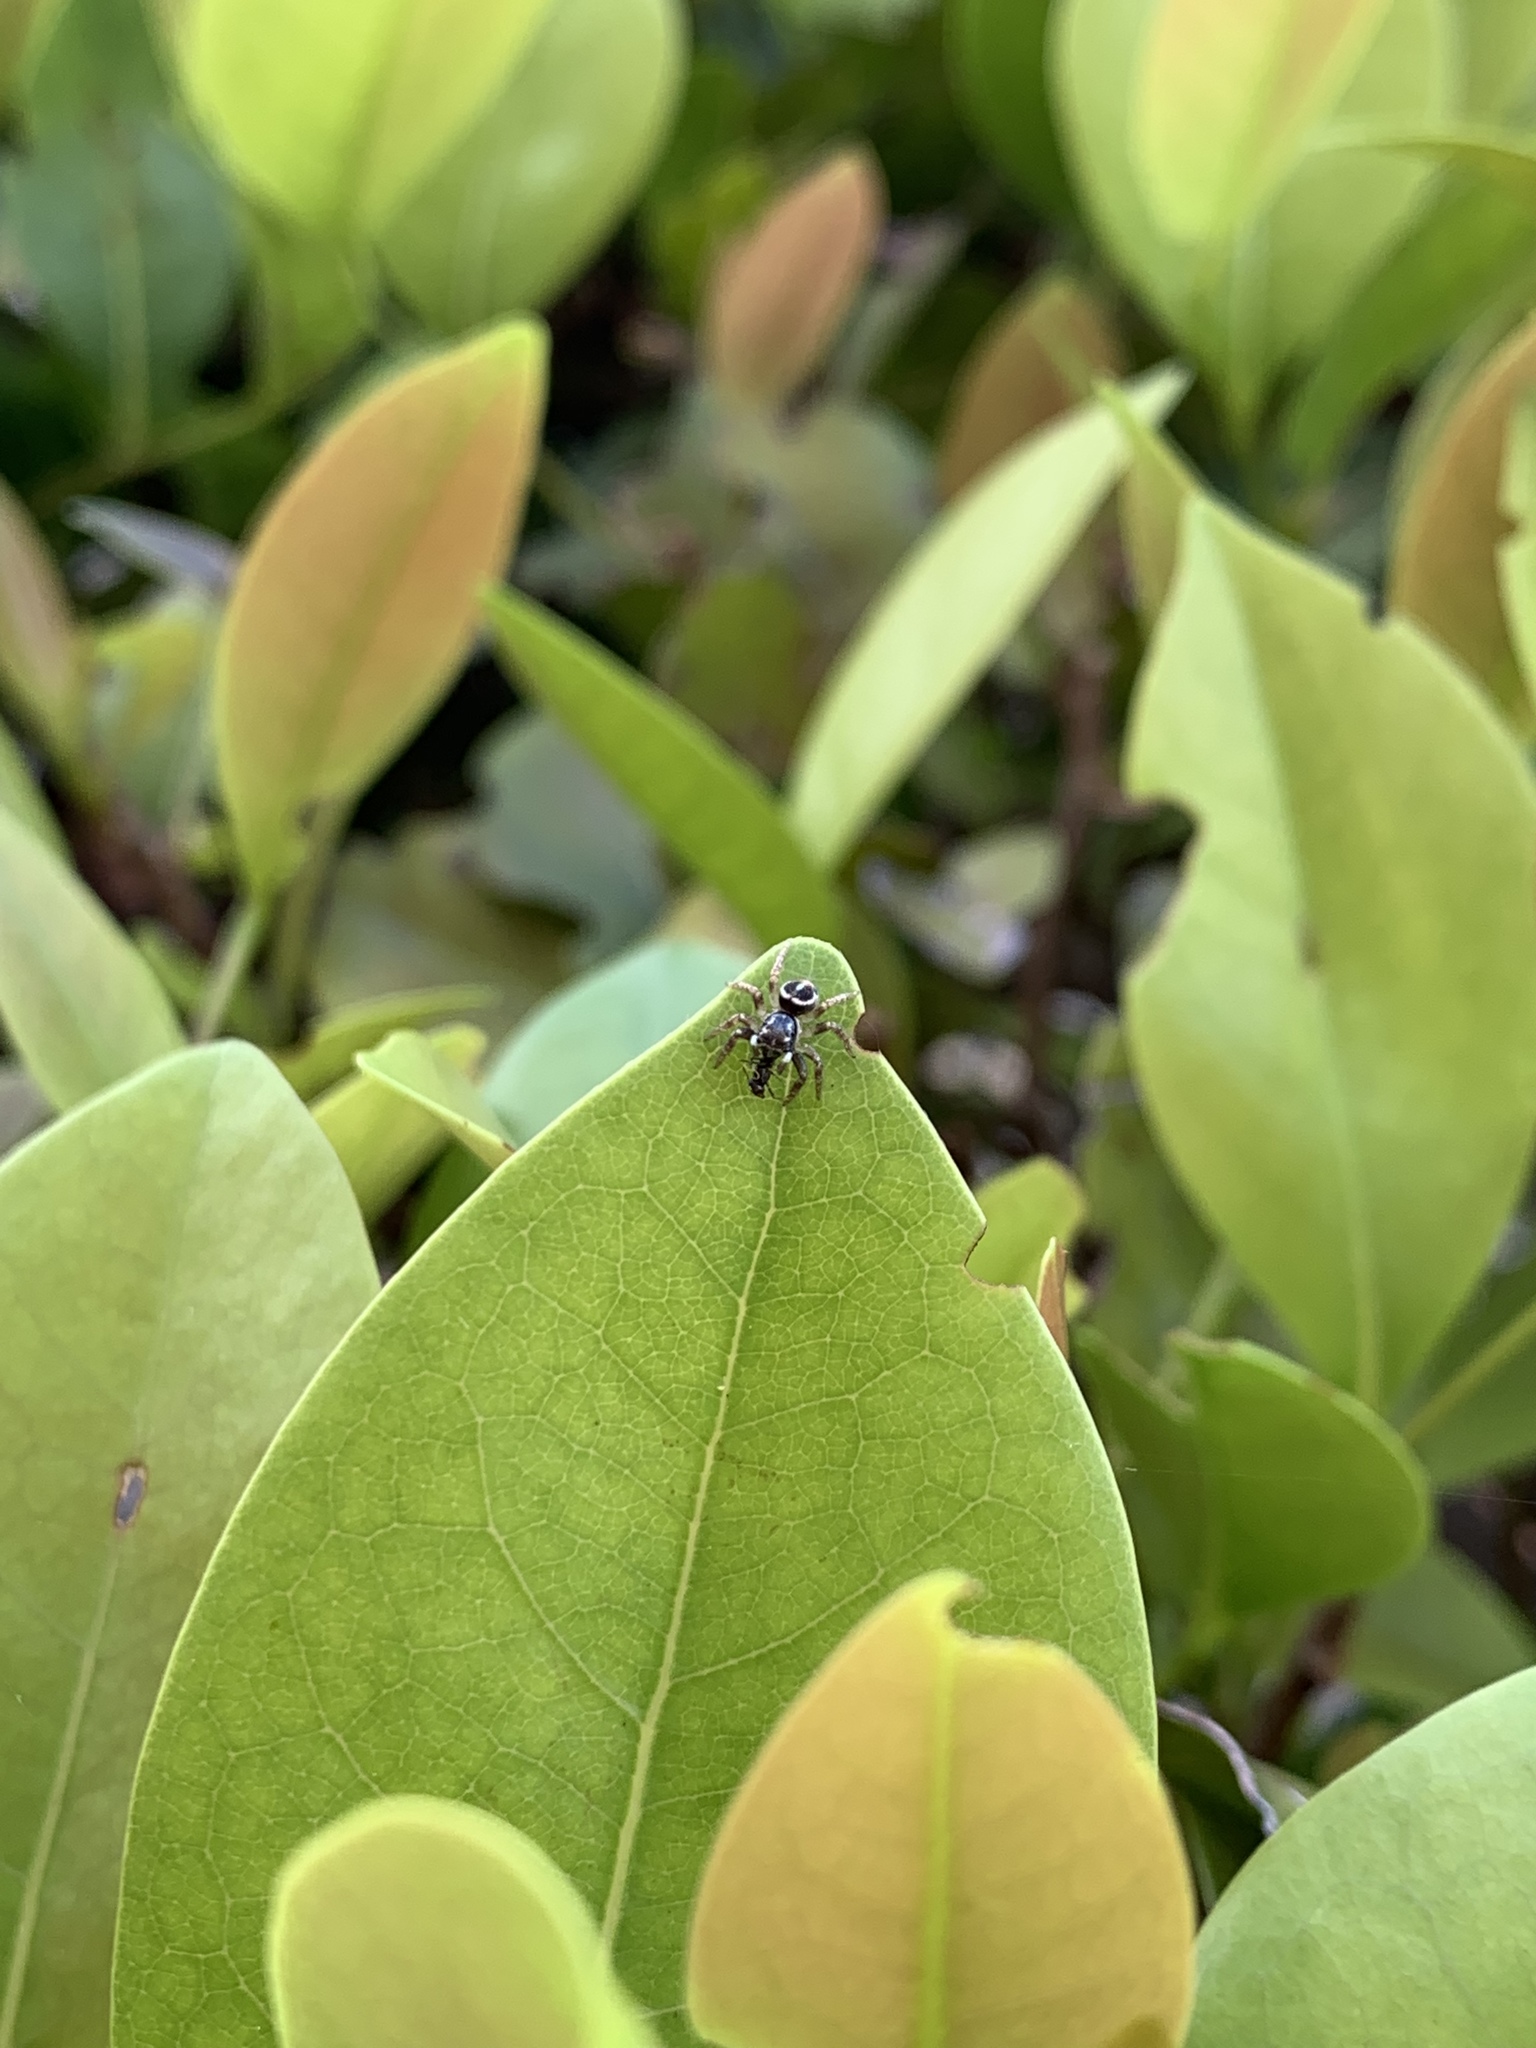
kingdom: Animalia
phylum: Arthropoda
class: Arachnida
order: Araneae
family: Salticidae
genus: Anasaitis
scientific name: Anasaitis canosa
